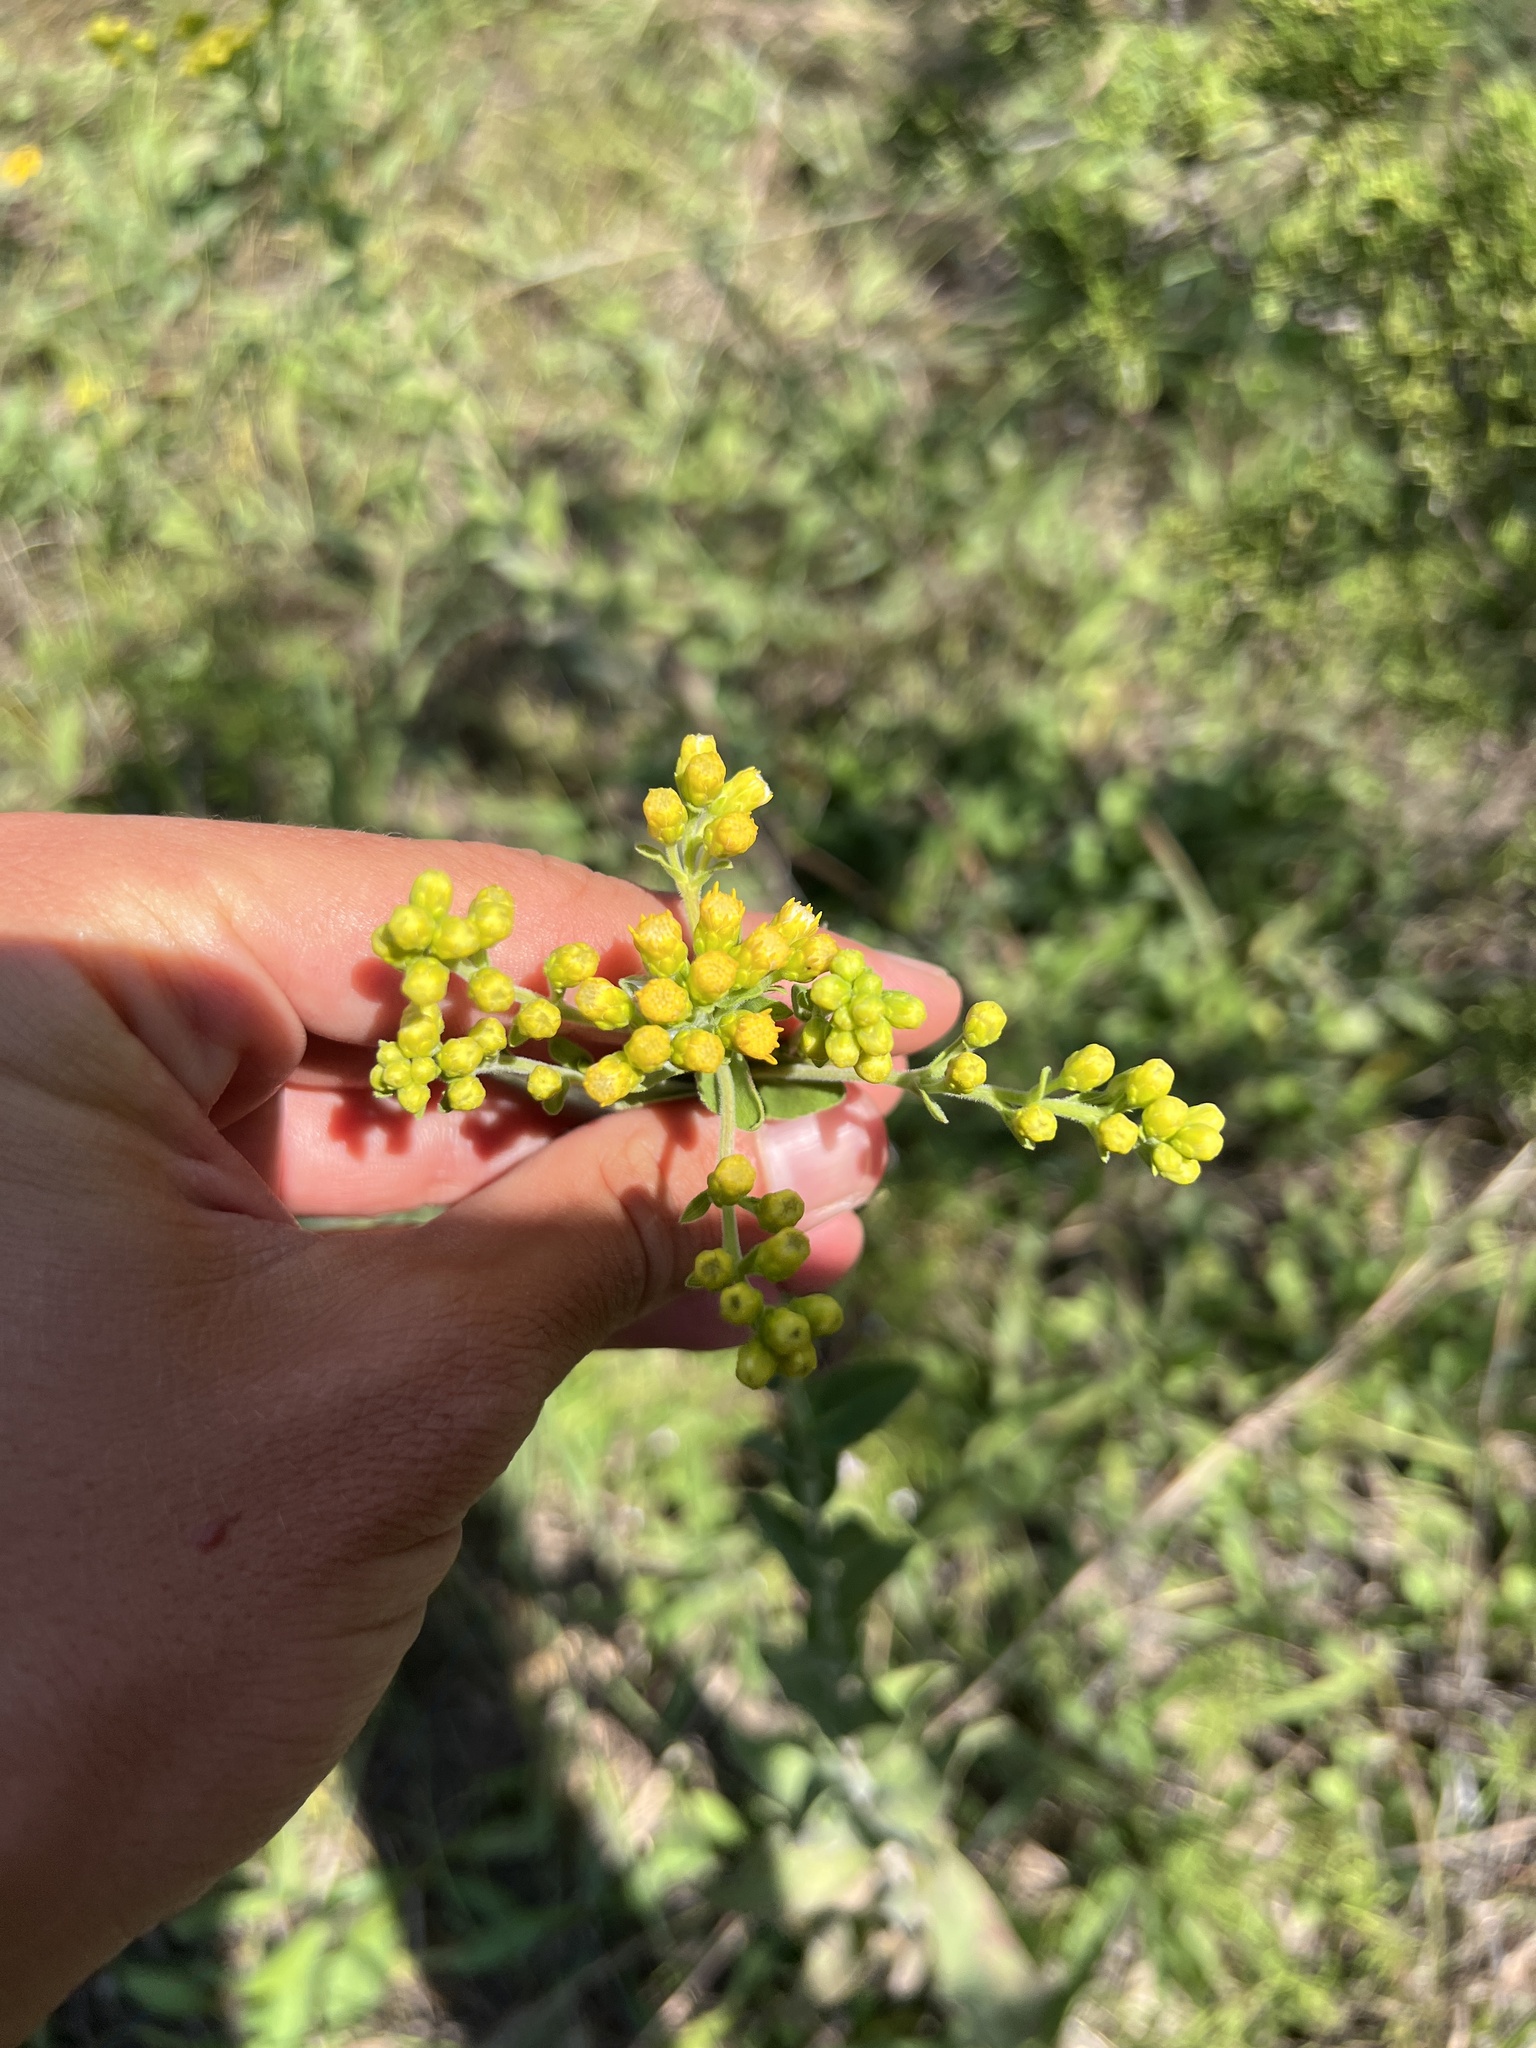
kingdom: Plantae
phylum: Tracheophyta
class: Magnoliopsida
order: Asterales
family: Asteraceae
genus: Solidago
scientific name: Solidago rigida
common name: Rigid goldenrod
